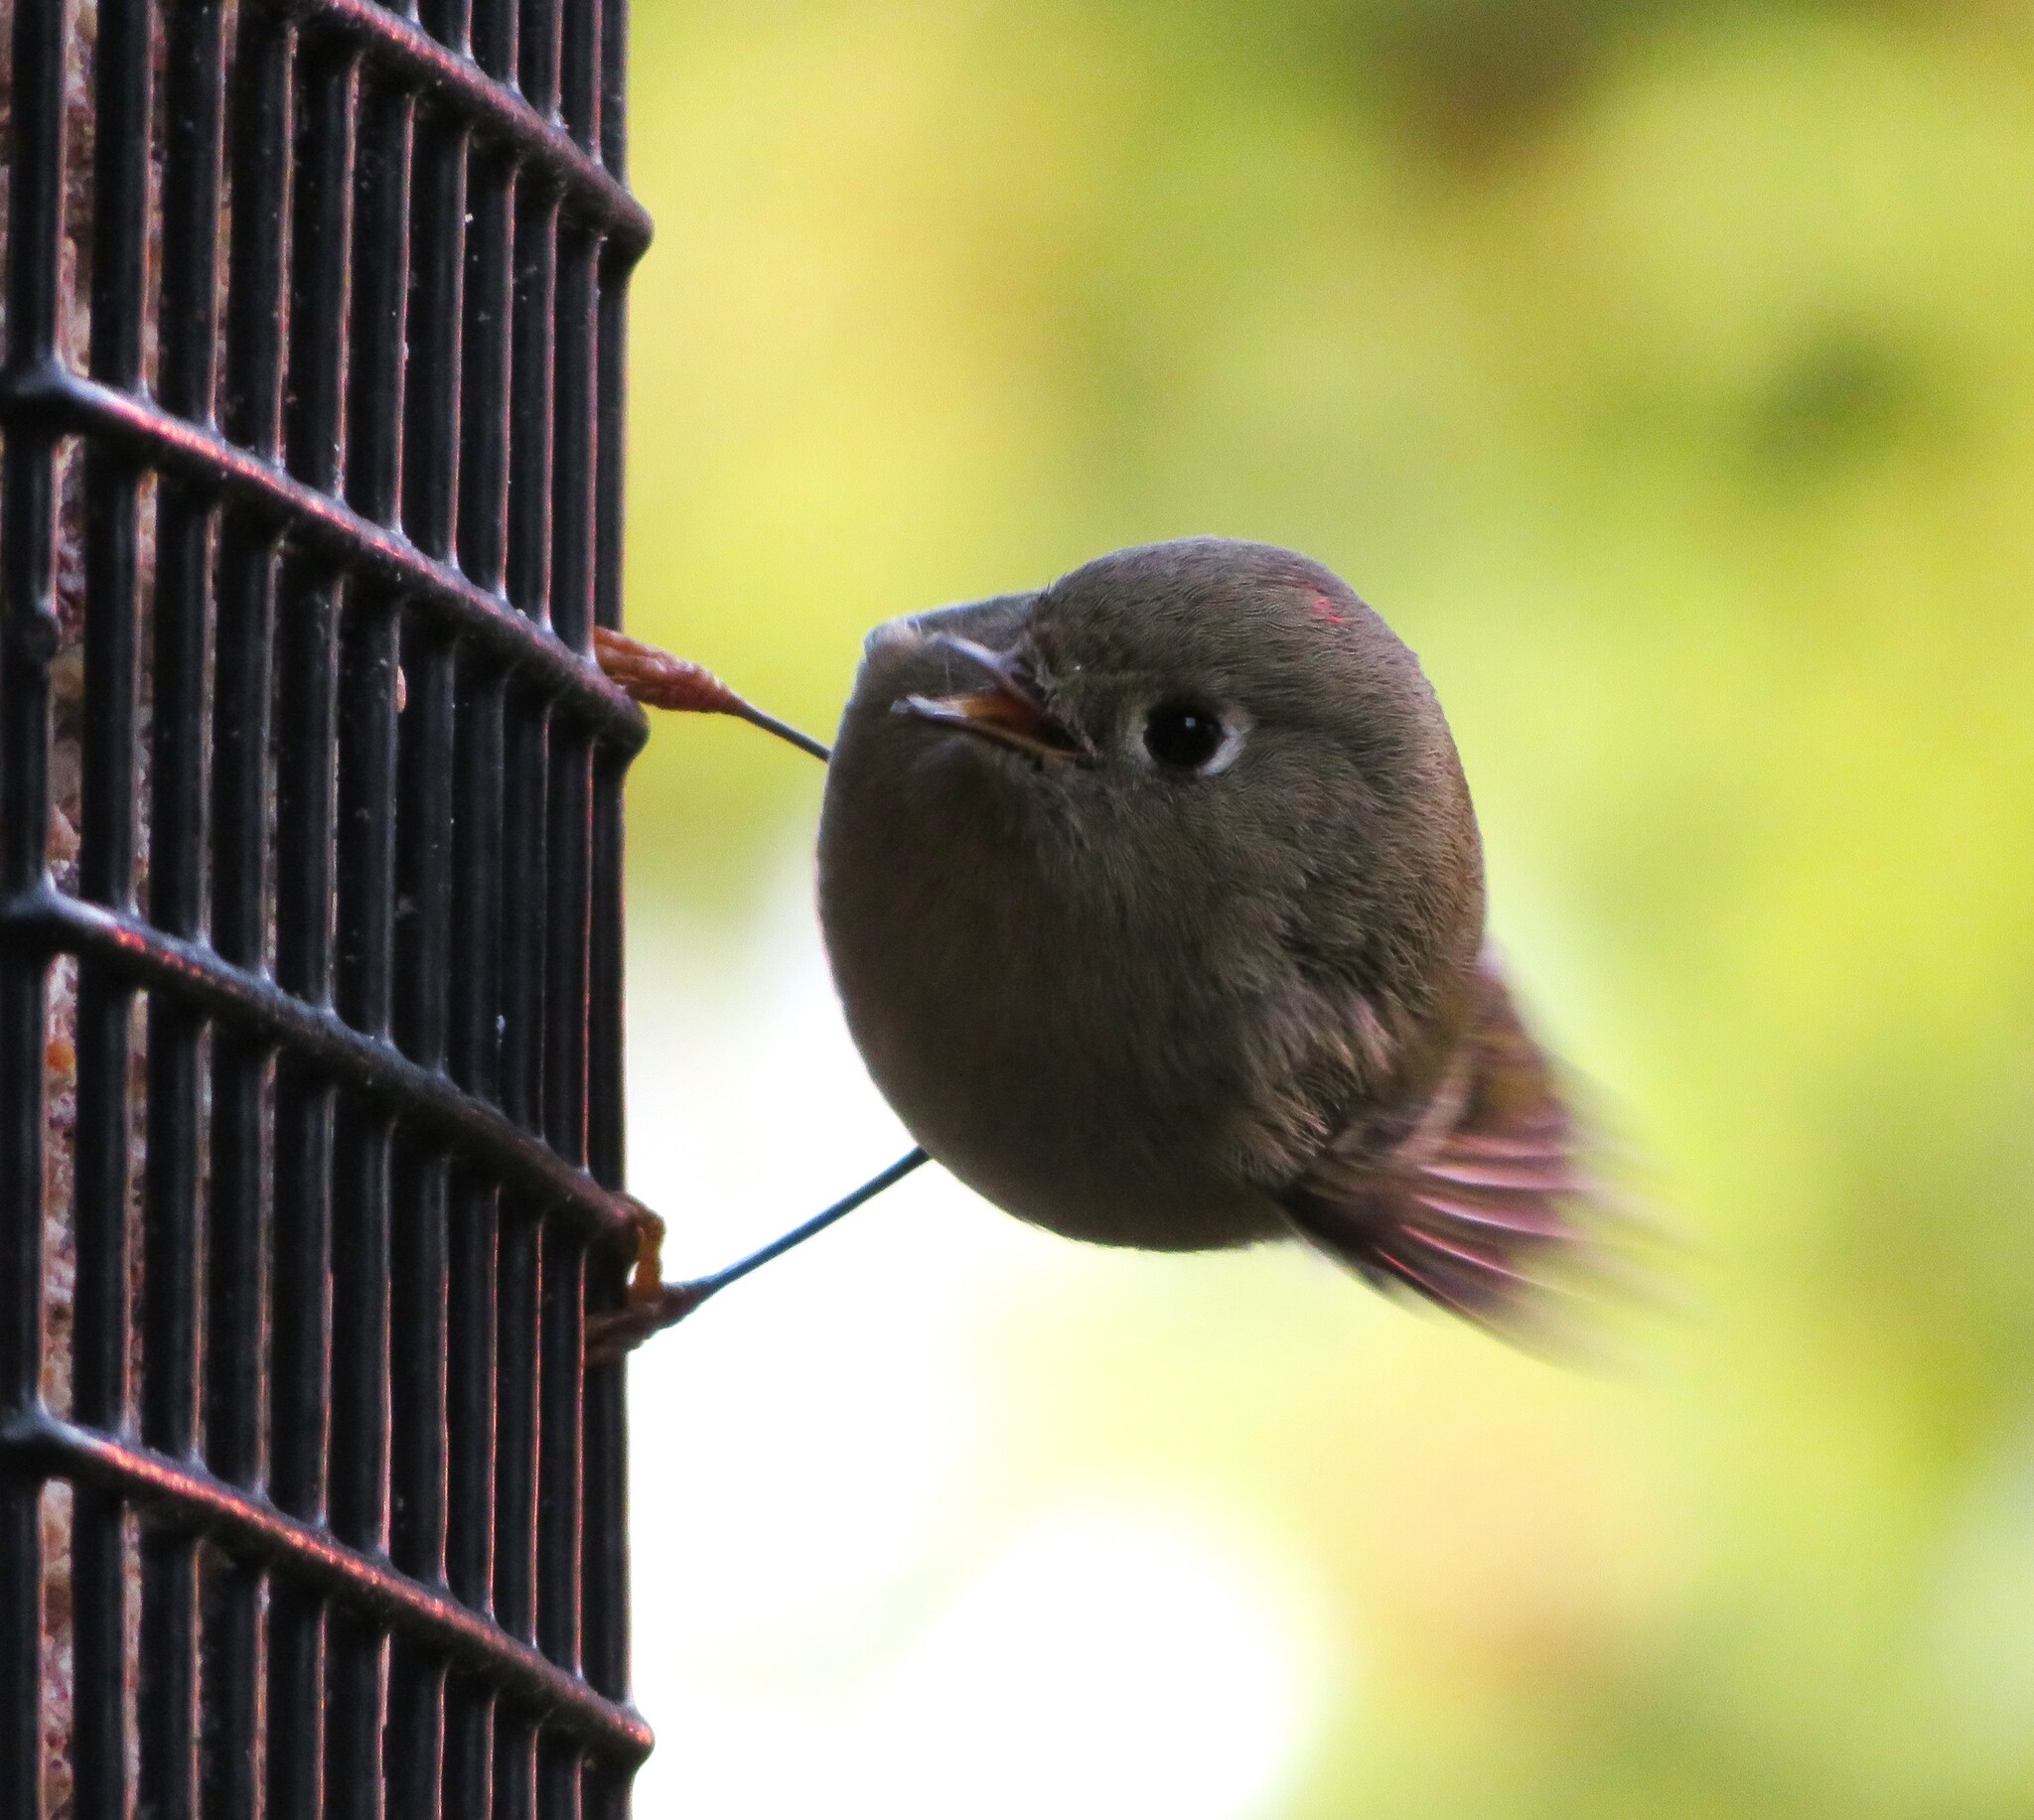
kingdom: Animalia
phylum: Chordata
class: Aves
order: Passeriformes
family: Regulidae
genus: Regulus
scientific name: Regulus calendula
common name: Ruby-crowned kinglet
